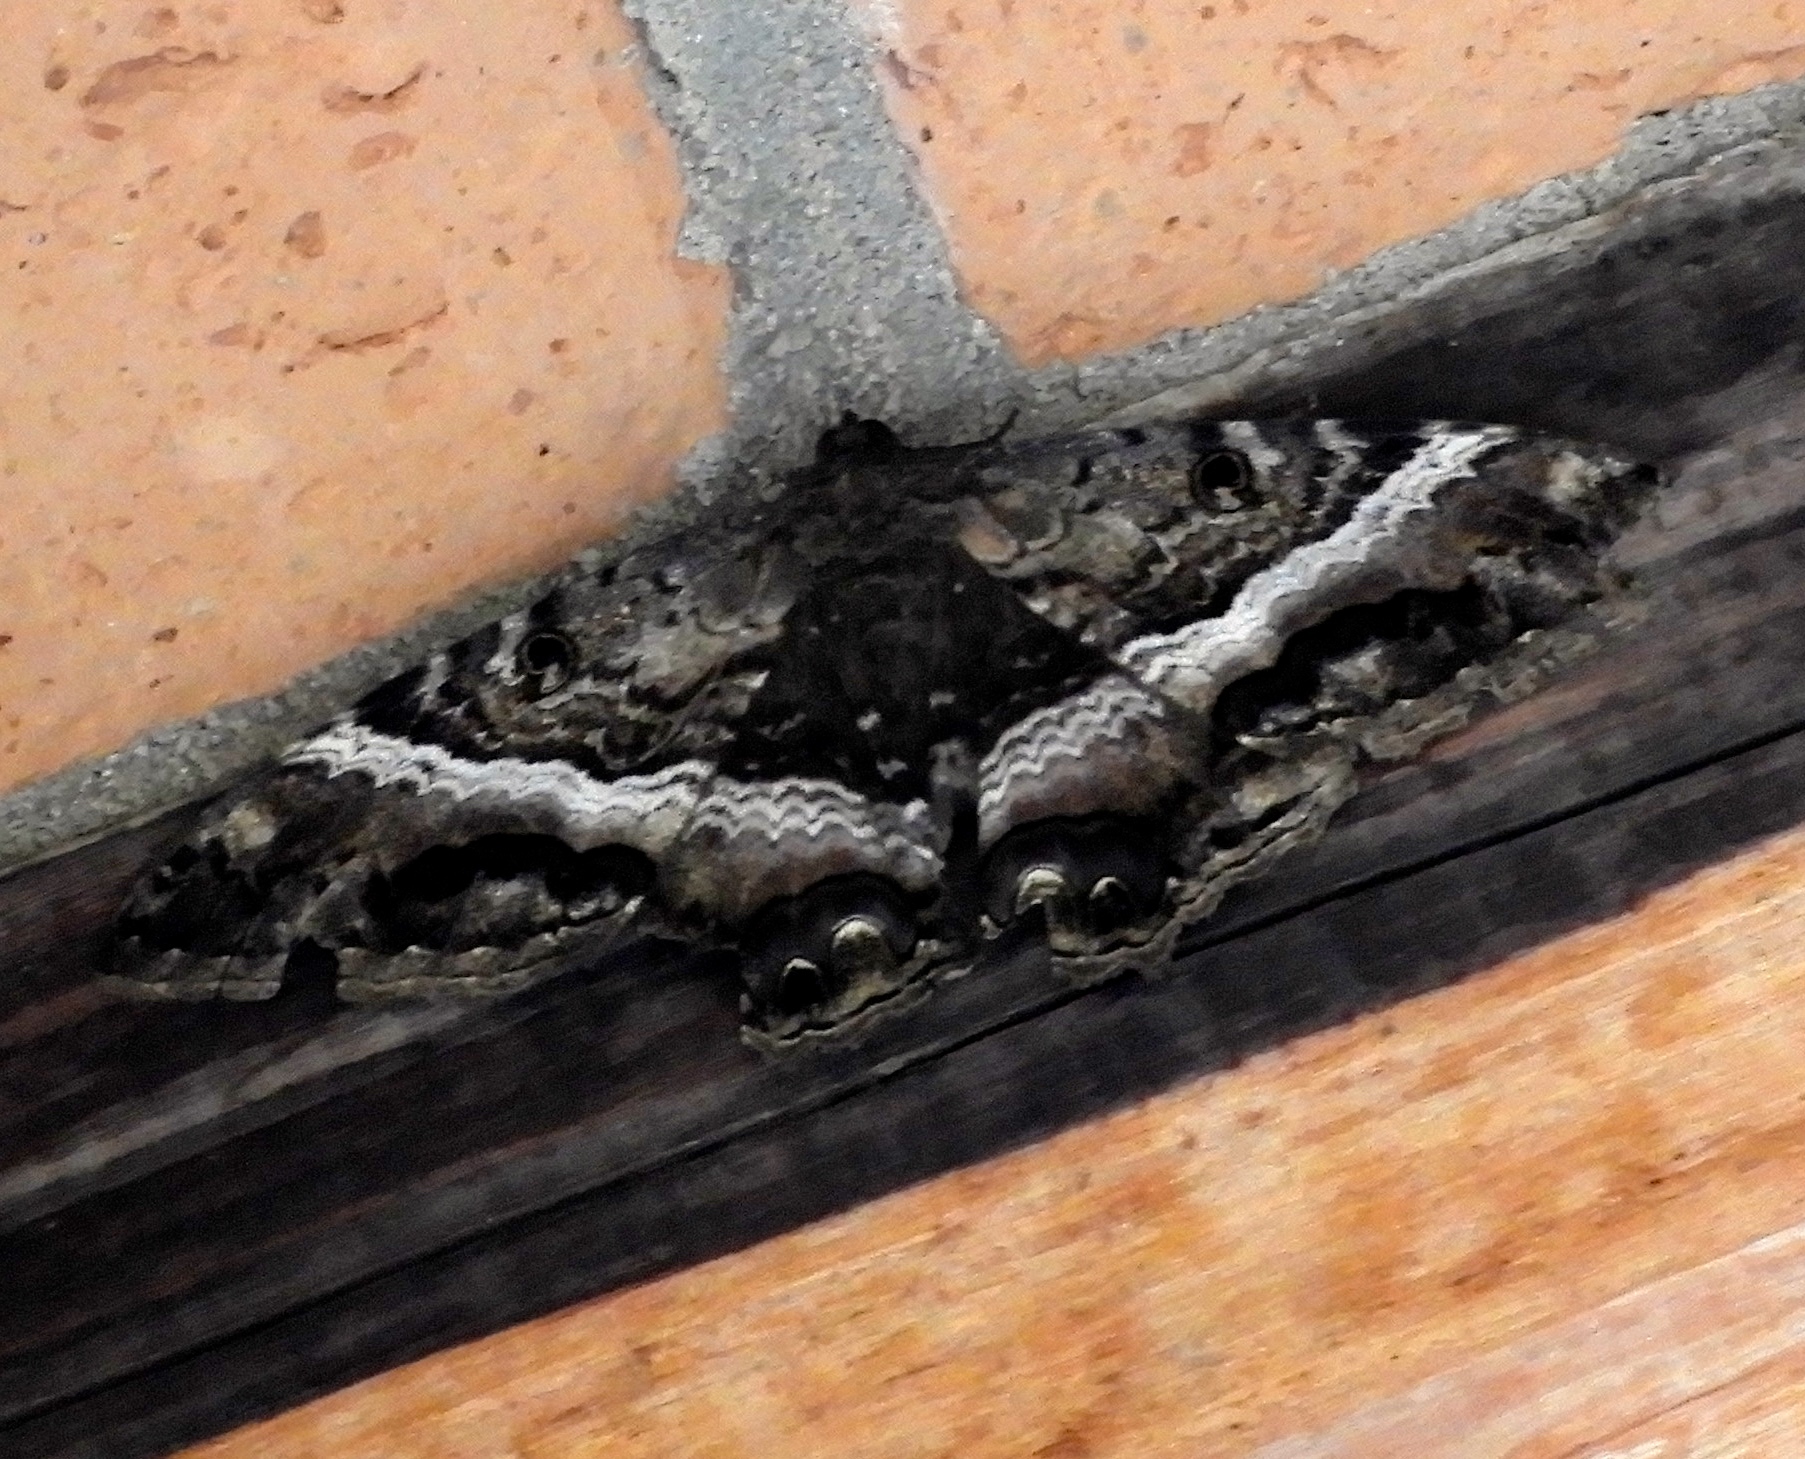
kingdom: Animalia
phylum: Arthropoda
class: Insecta
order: Lepidoptera
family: Erebidae
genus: Ascalapha
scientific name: Ascalapha odorata
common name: Black witch
